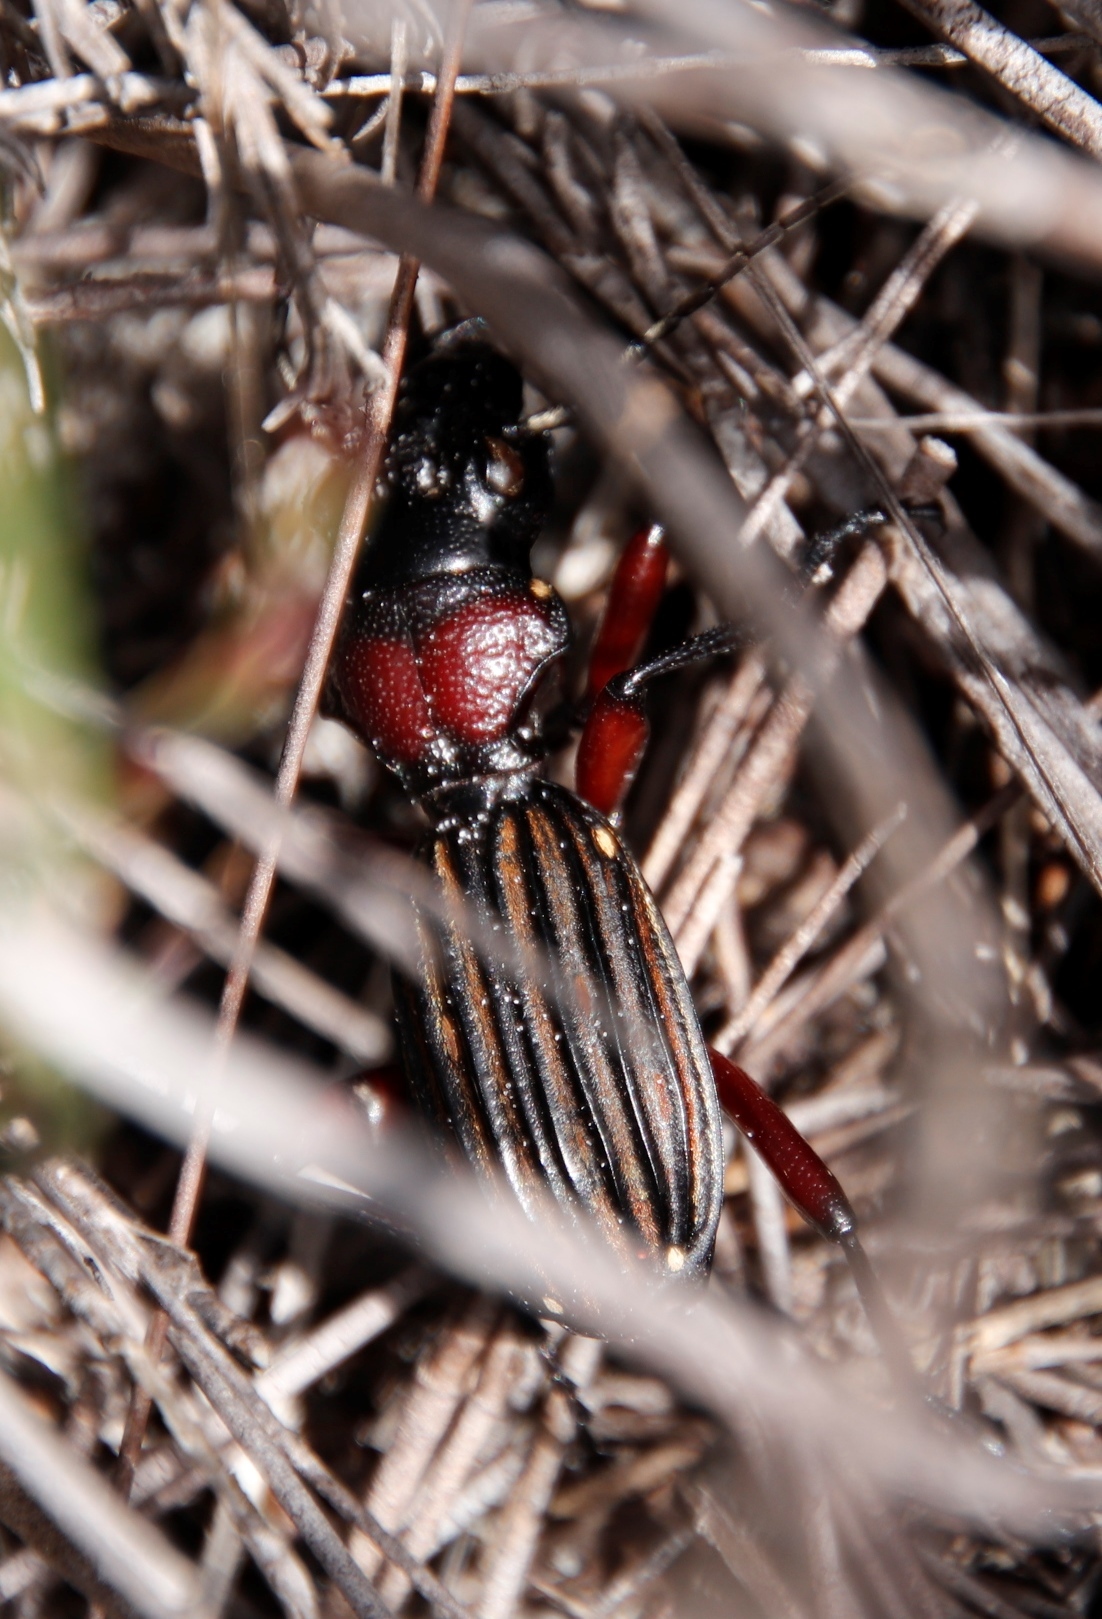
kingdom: Animalia
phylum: Arthropoda
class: Insecta
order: Coleoptera
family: Carabidae
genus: Anthia
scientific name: Anthia decemguttata
